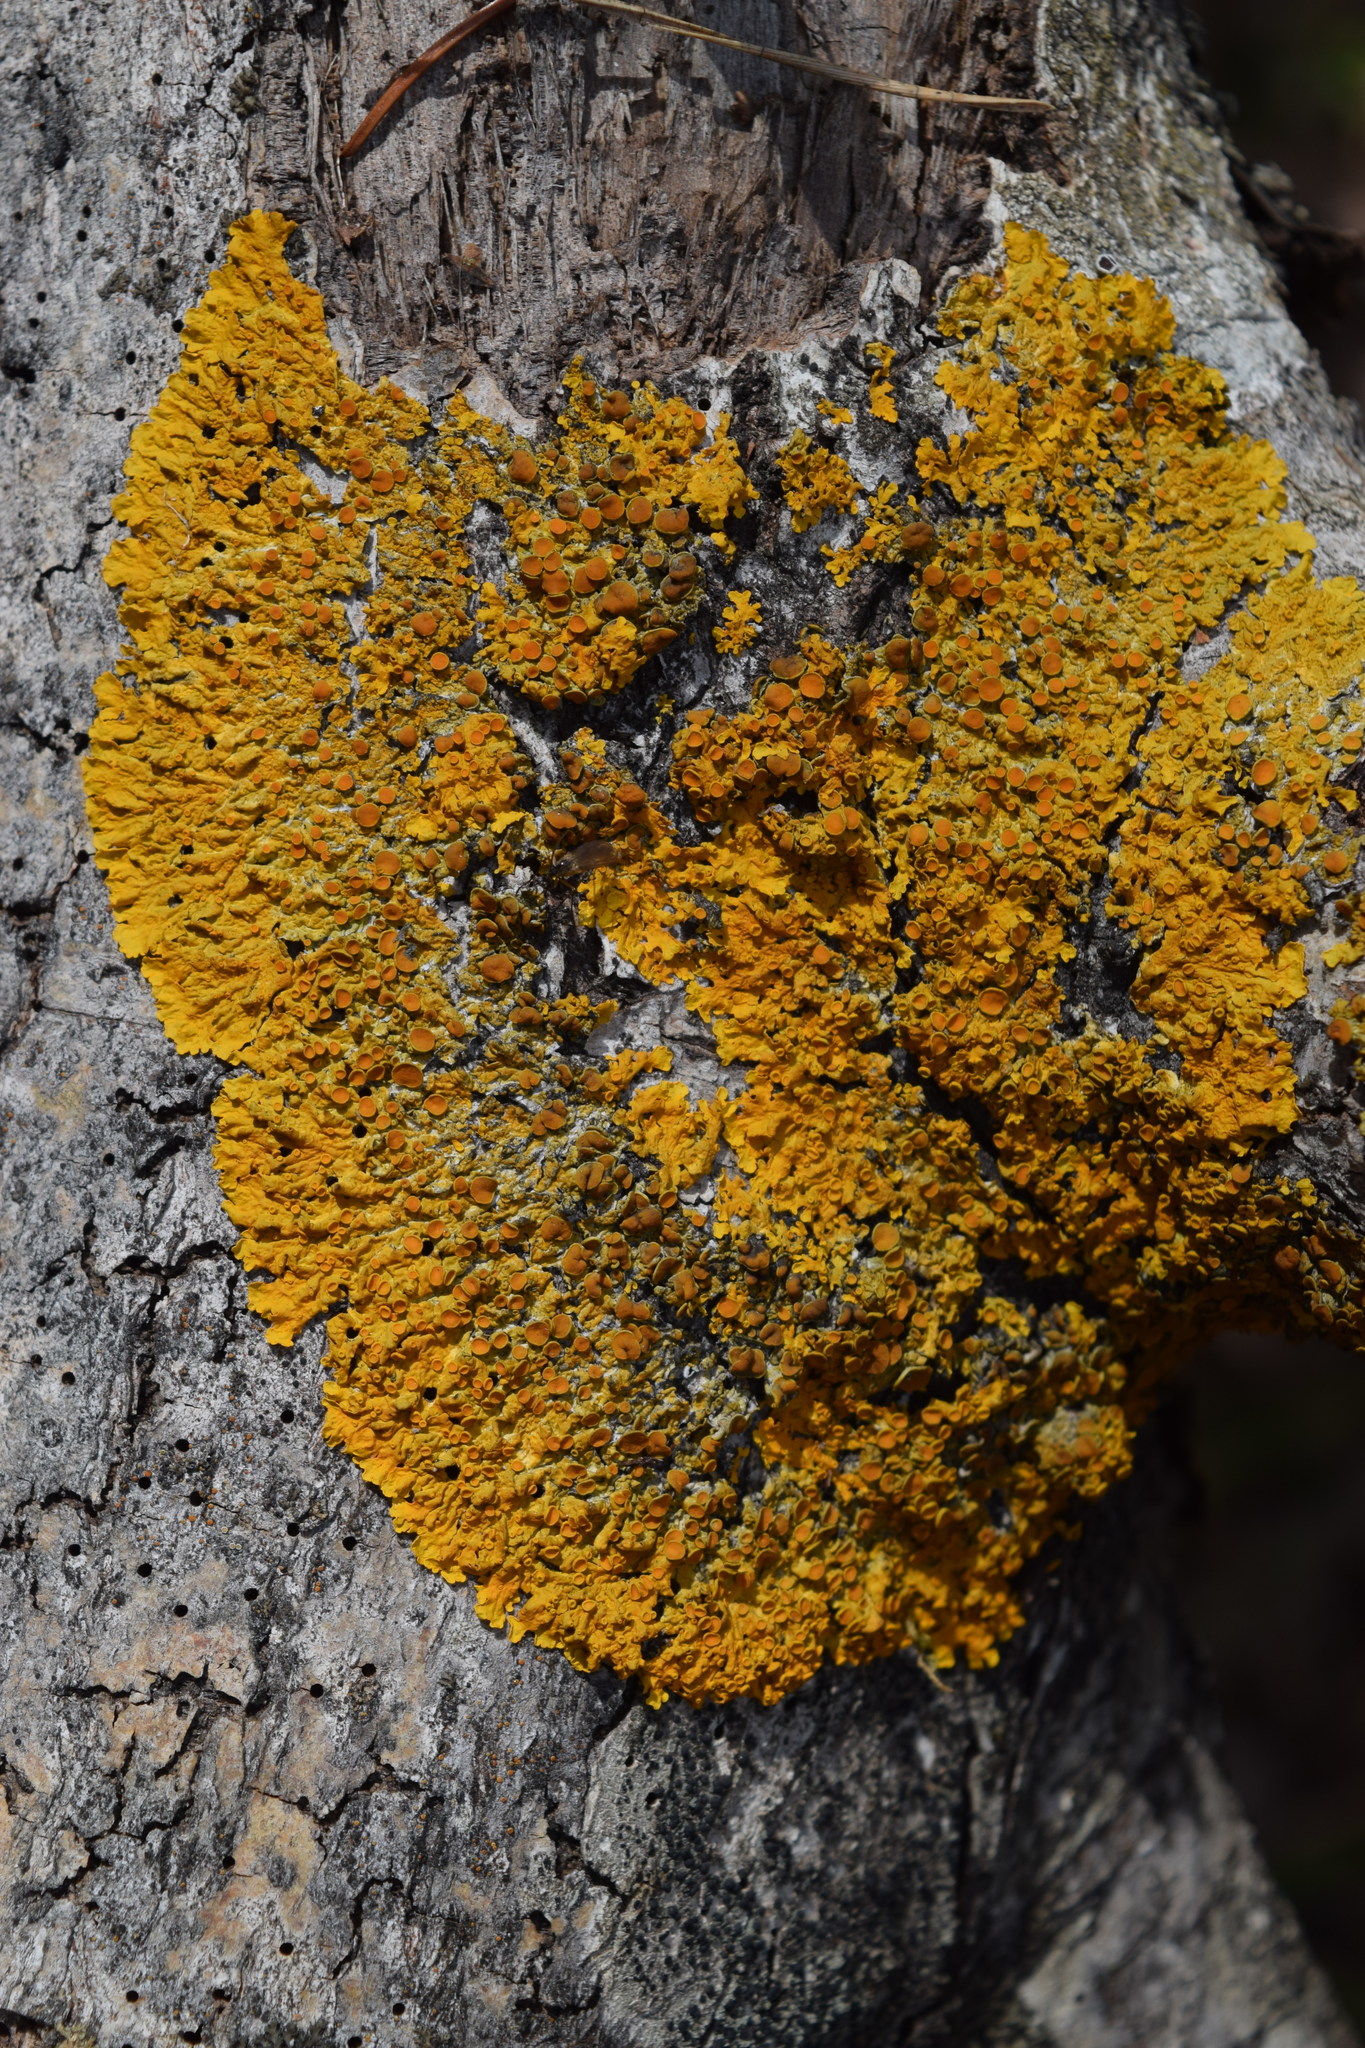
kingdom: Fungi
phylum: Ascomycota
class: Lecanoromycetes
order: Teloschistales
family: Teloschistaceae
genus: Xanthoria
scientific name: Xanthoria parietina
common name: Common orange lichen
